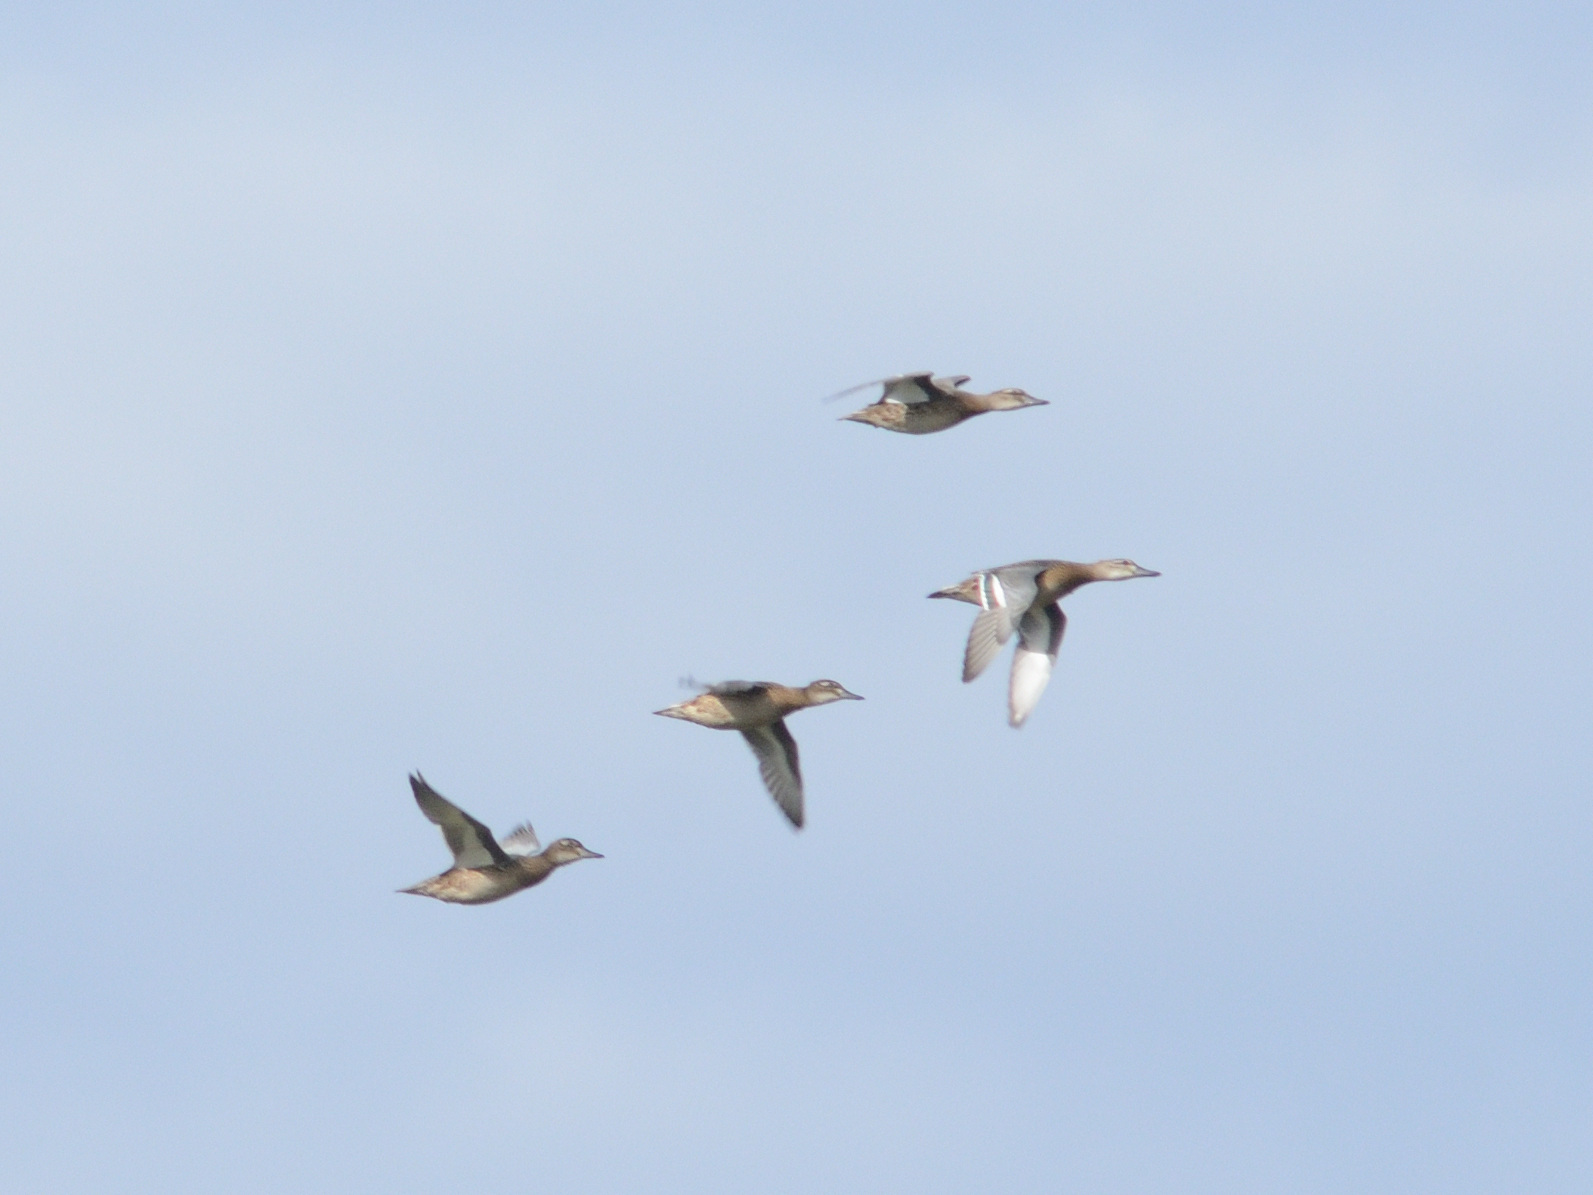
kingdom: Animalia
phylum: Chordata
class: Aves
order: Anseriformes
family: Anatidae
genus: Spatula
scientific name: Spatula querquedula
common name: Garganey
